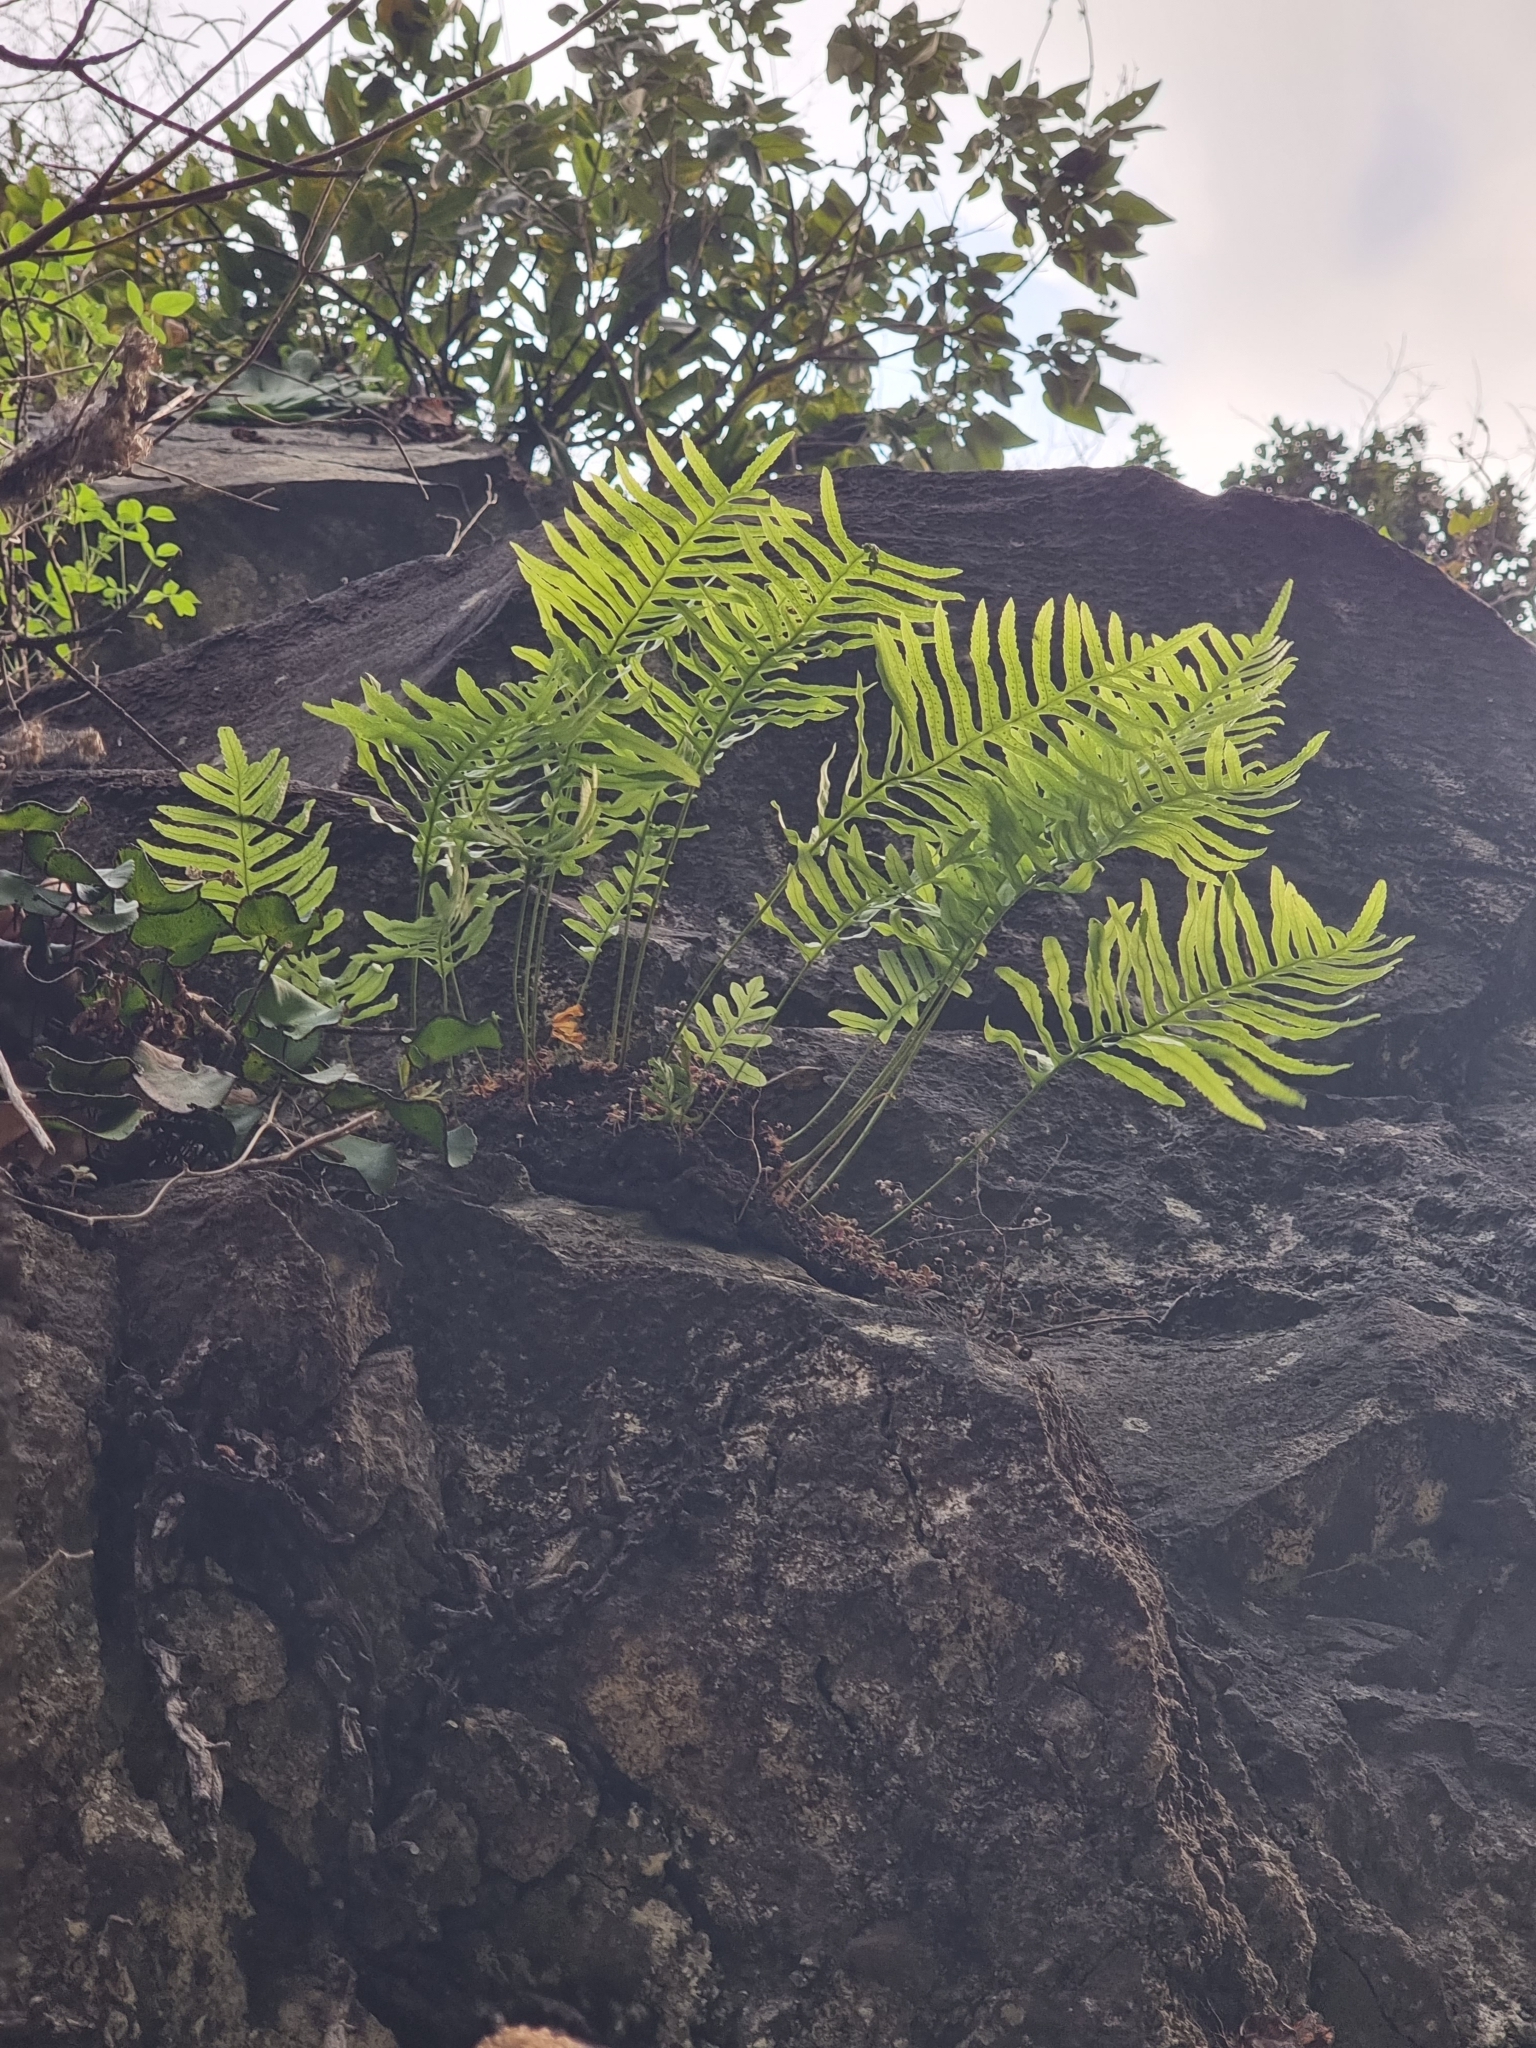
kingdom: Plantae
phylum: Tracheophyta
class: Polypodiopsida
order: Polypodiales
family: Polypodiaceae
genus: Polypodium
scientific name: Polypodium macaronesicum
